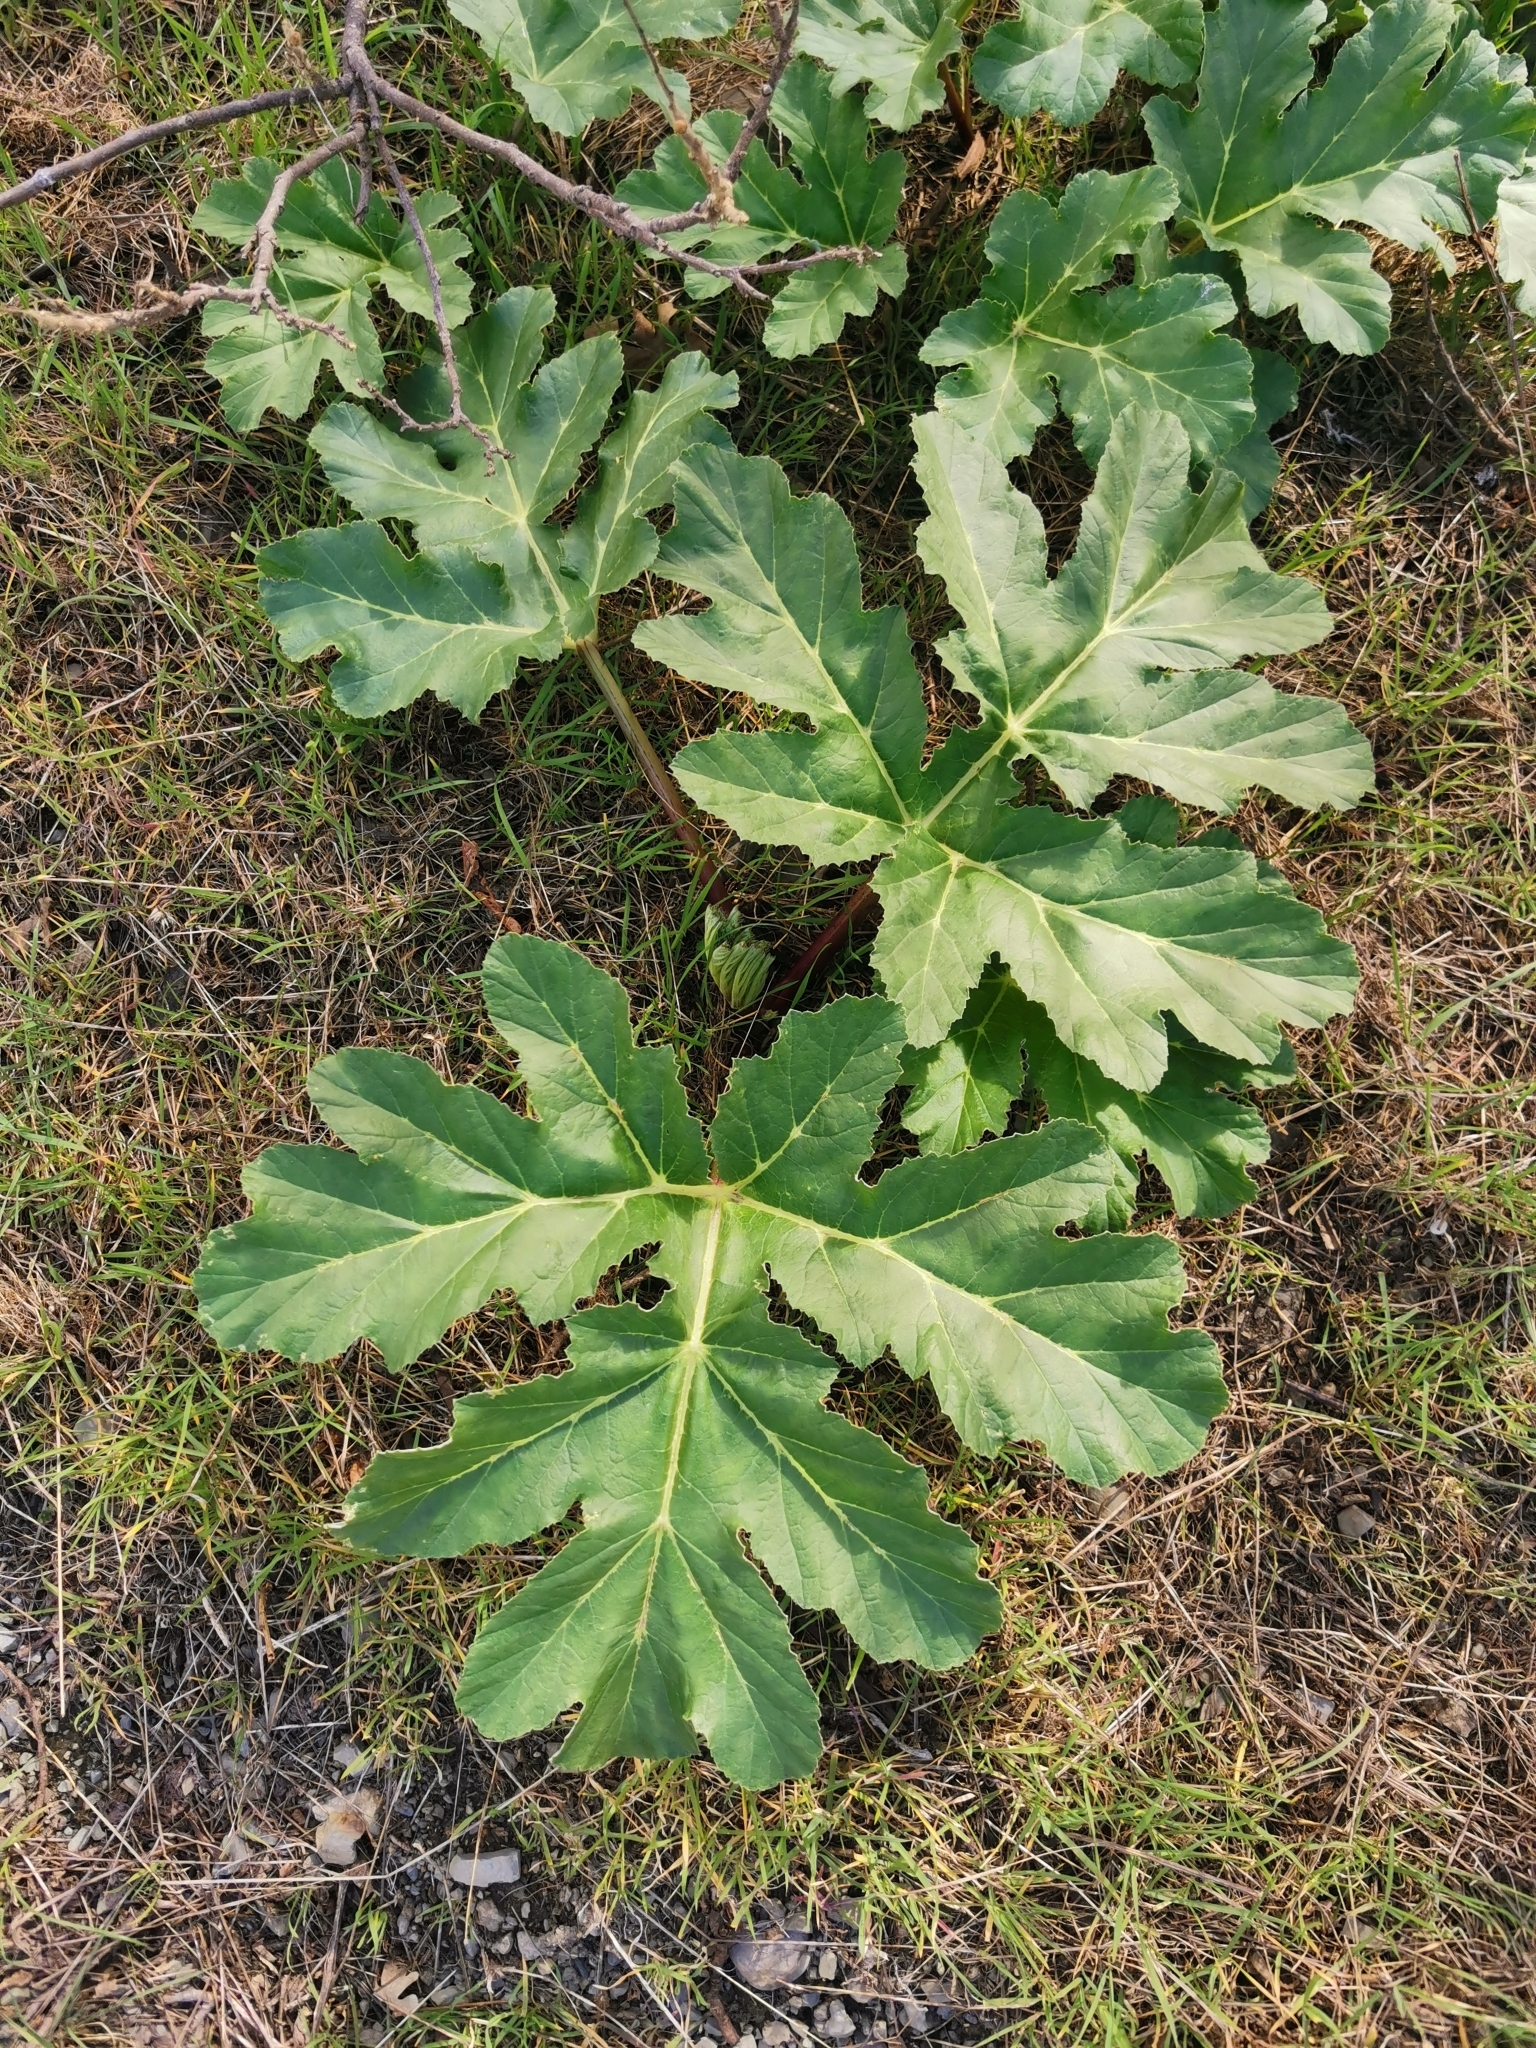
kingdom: Plantae
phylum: Tracheophyta
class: Magnoliopsida
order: Apiales
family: Apiaceae
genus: Heracleum
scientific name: Heracleum stevenii
